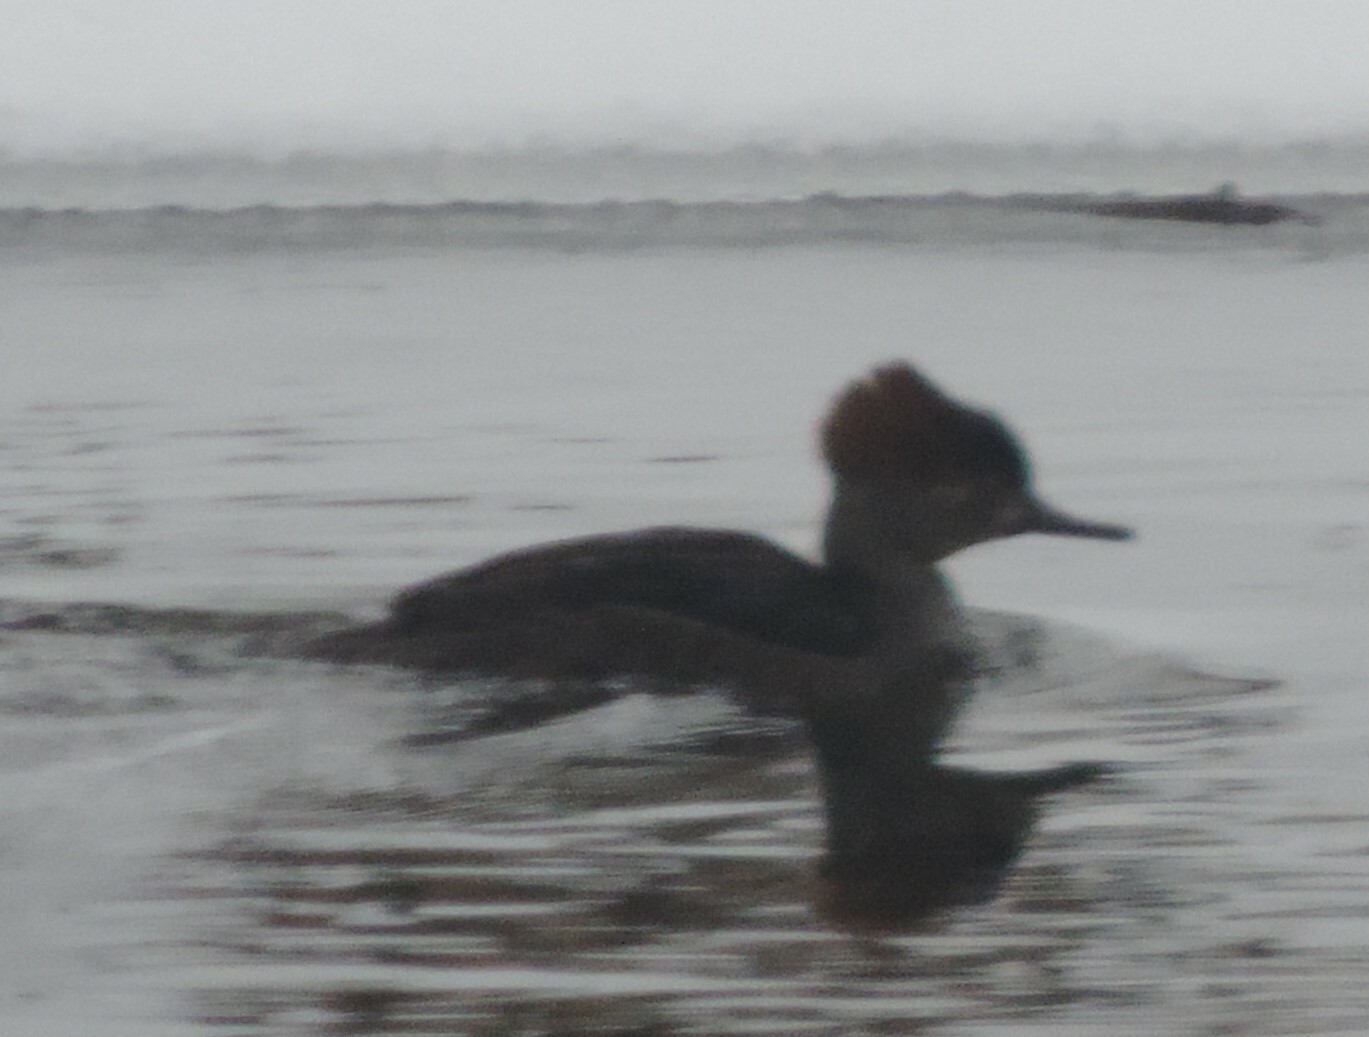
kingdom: Animalia
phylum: Chordata
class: Aves
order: Anseriformes
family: Anatidae
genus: Lophodytes
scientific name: Lophodytes cucullatus
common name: Hooded merganser
